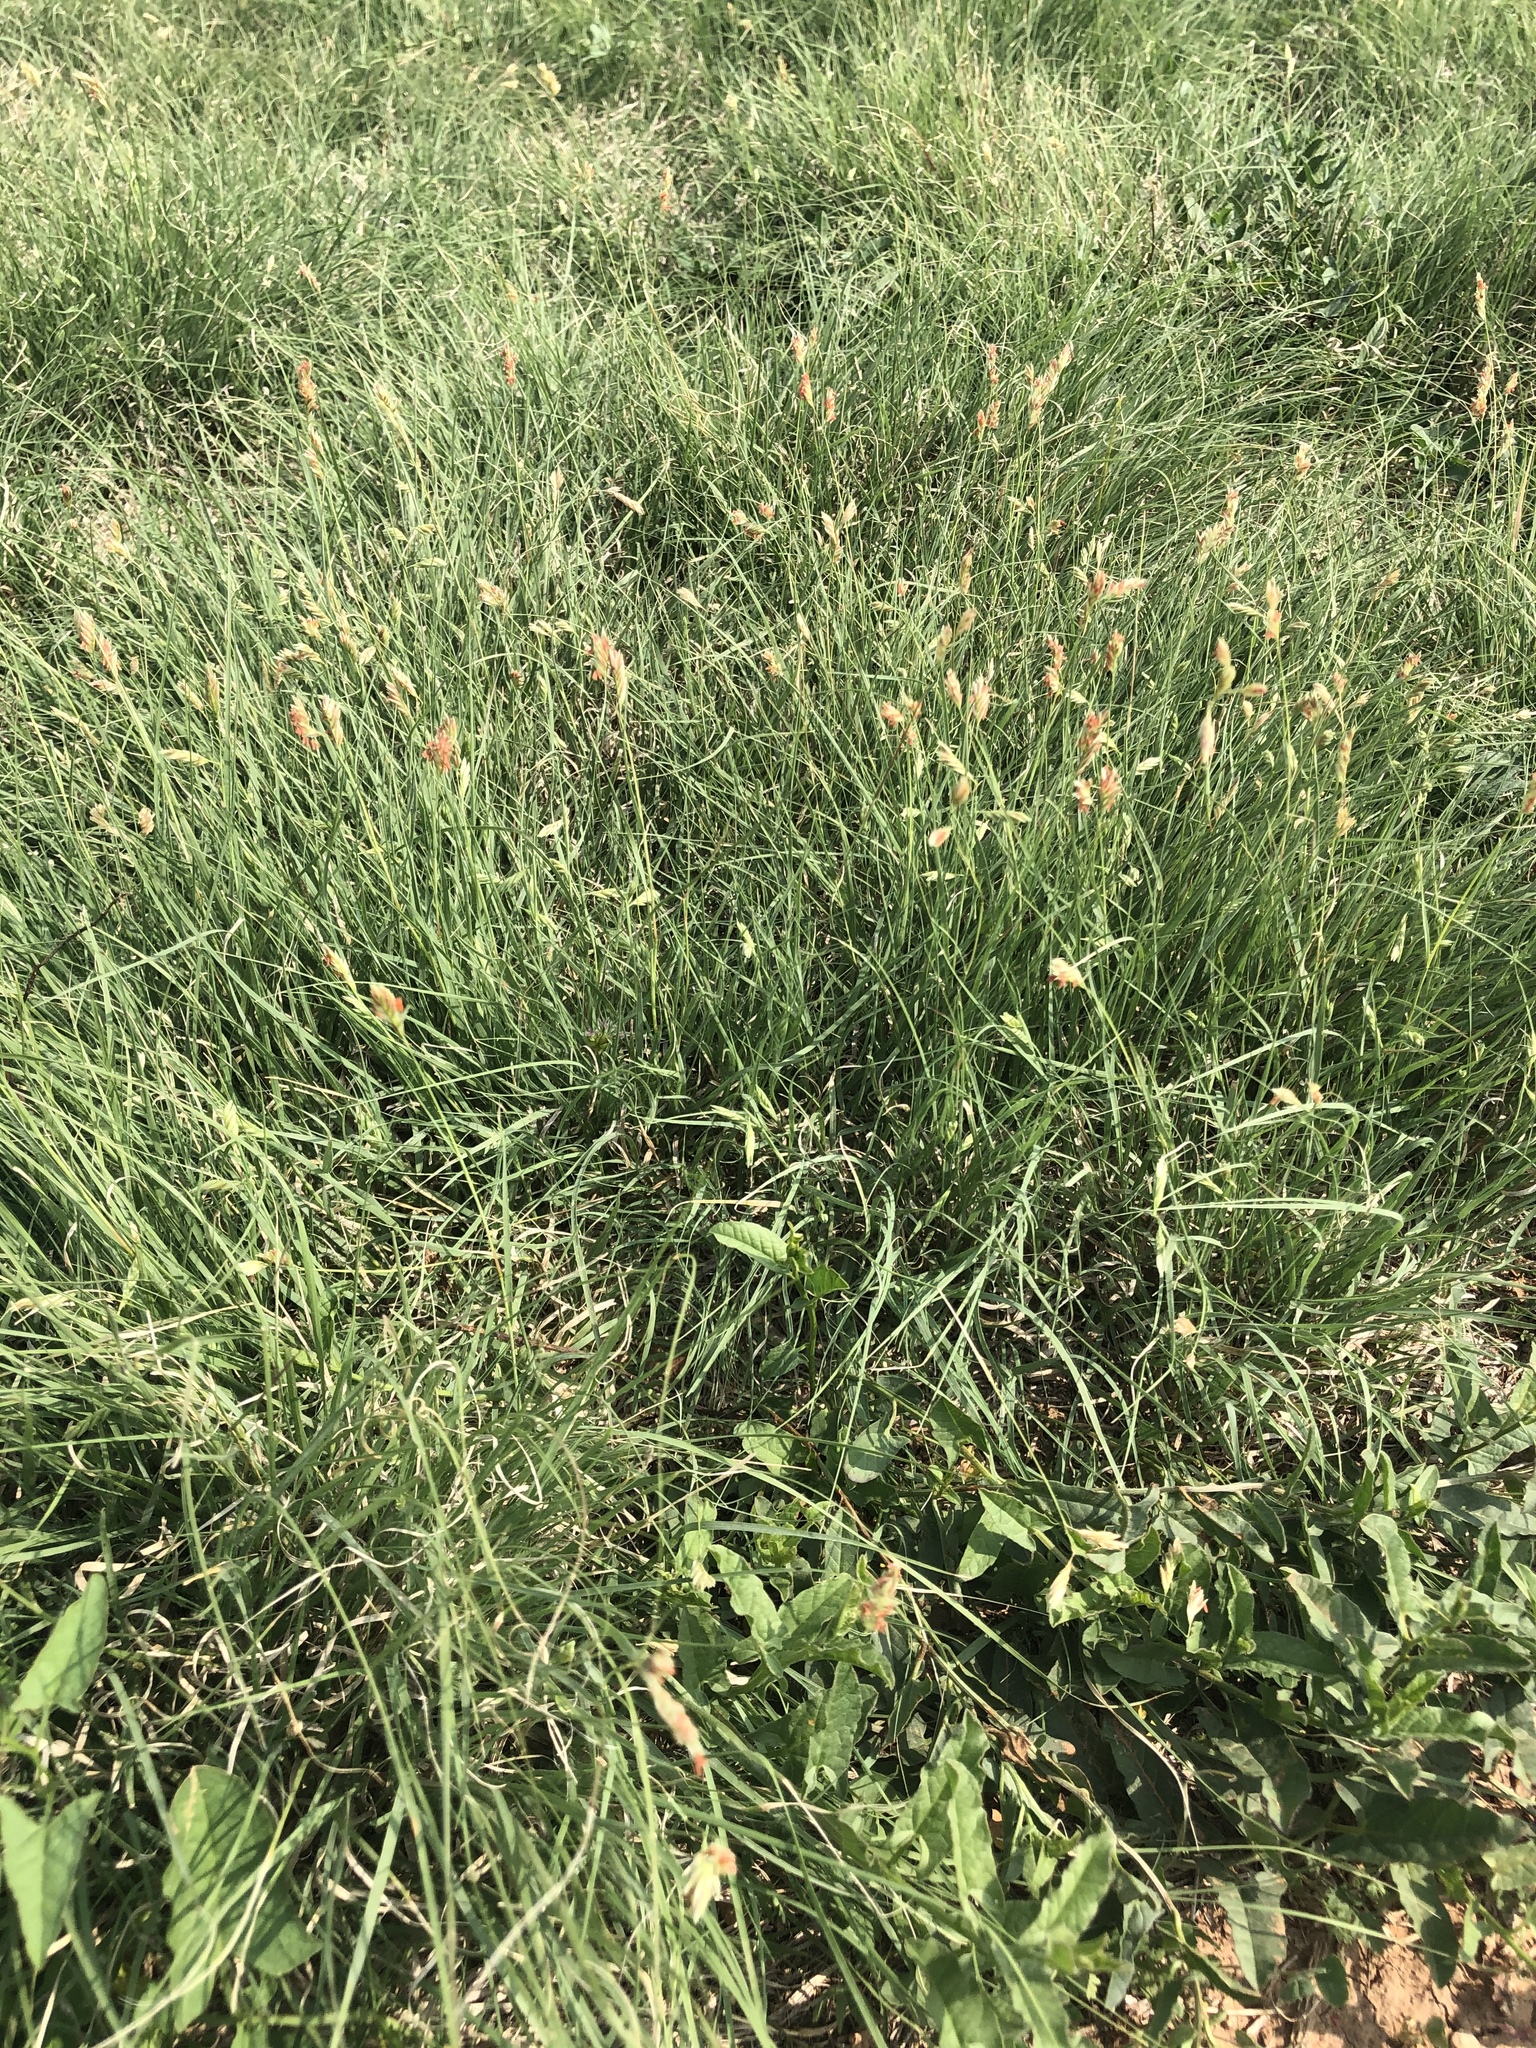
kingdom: Plantae
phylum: Tracheophyta
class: Liliopsida
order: Poales
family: Poaceae
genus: Bouteloua
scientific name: Bouteloua dactyloides
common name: Buffalo grass
